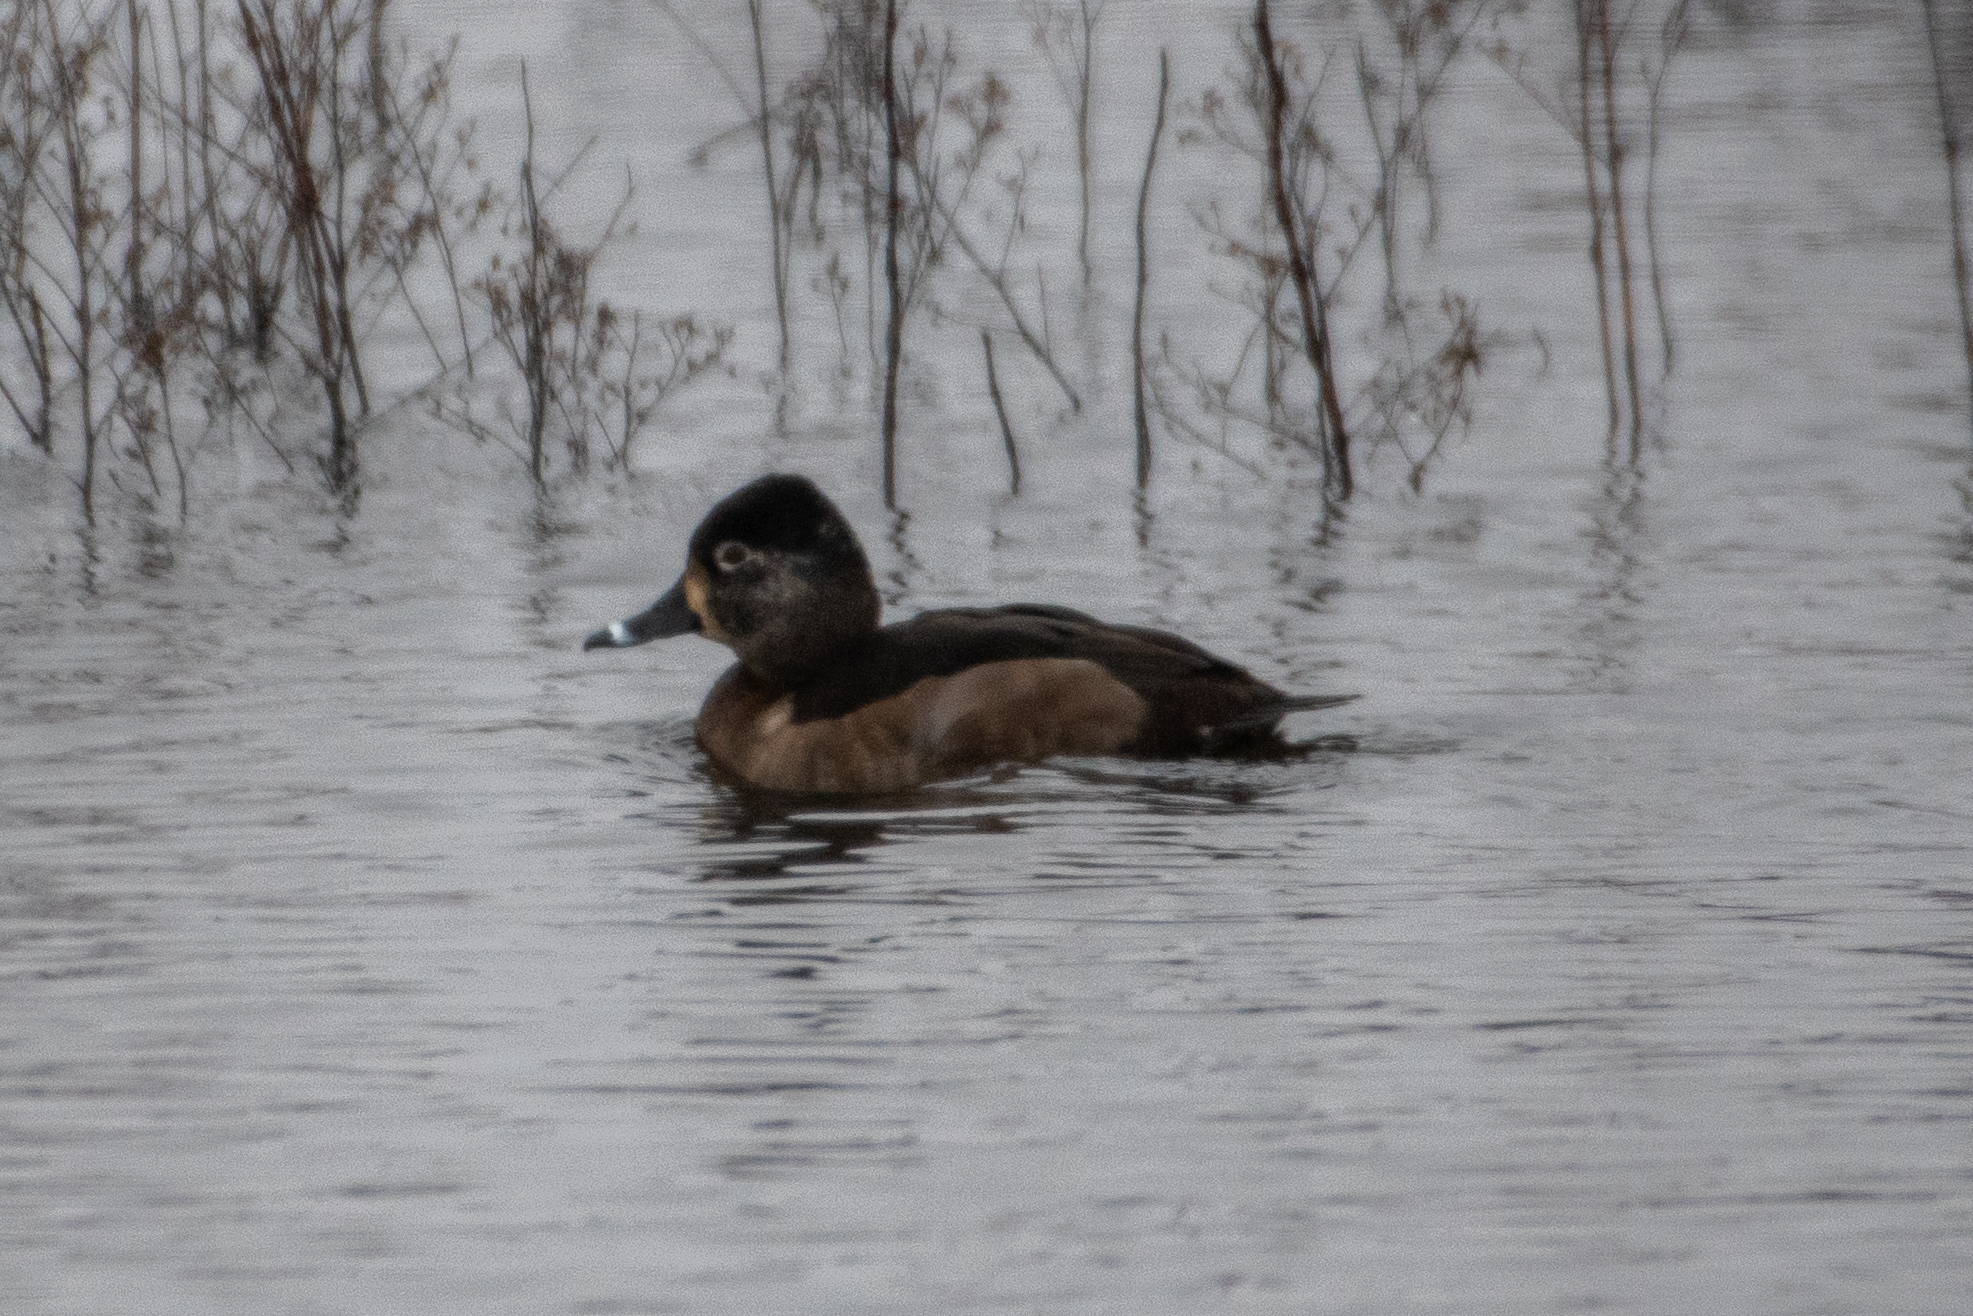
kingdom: Animalia
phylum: Chordata
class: Aves
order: Anseriformes
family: Anatidae
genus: Aythya
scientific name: Aythya collaris
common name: Ring-necked duck
